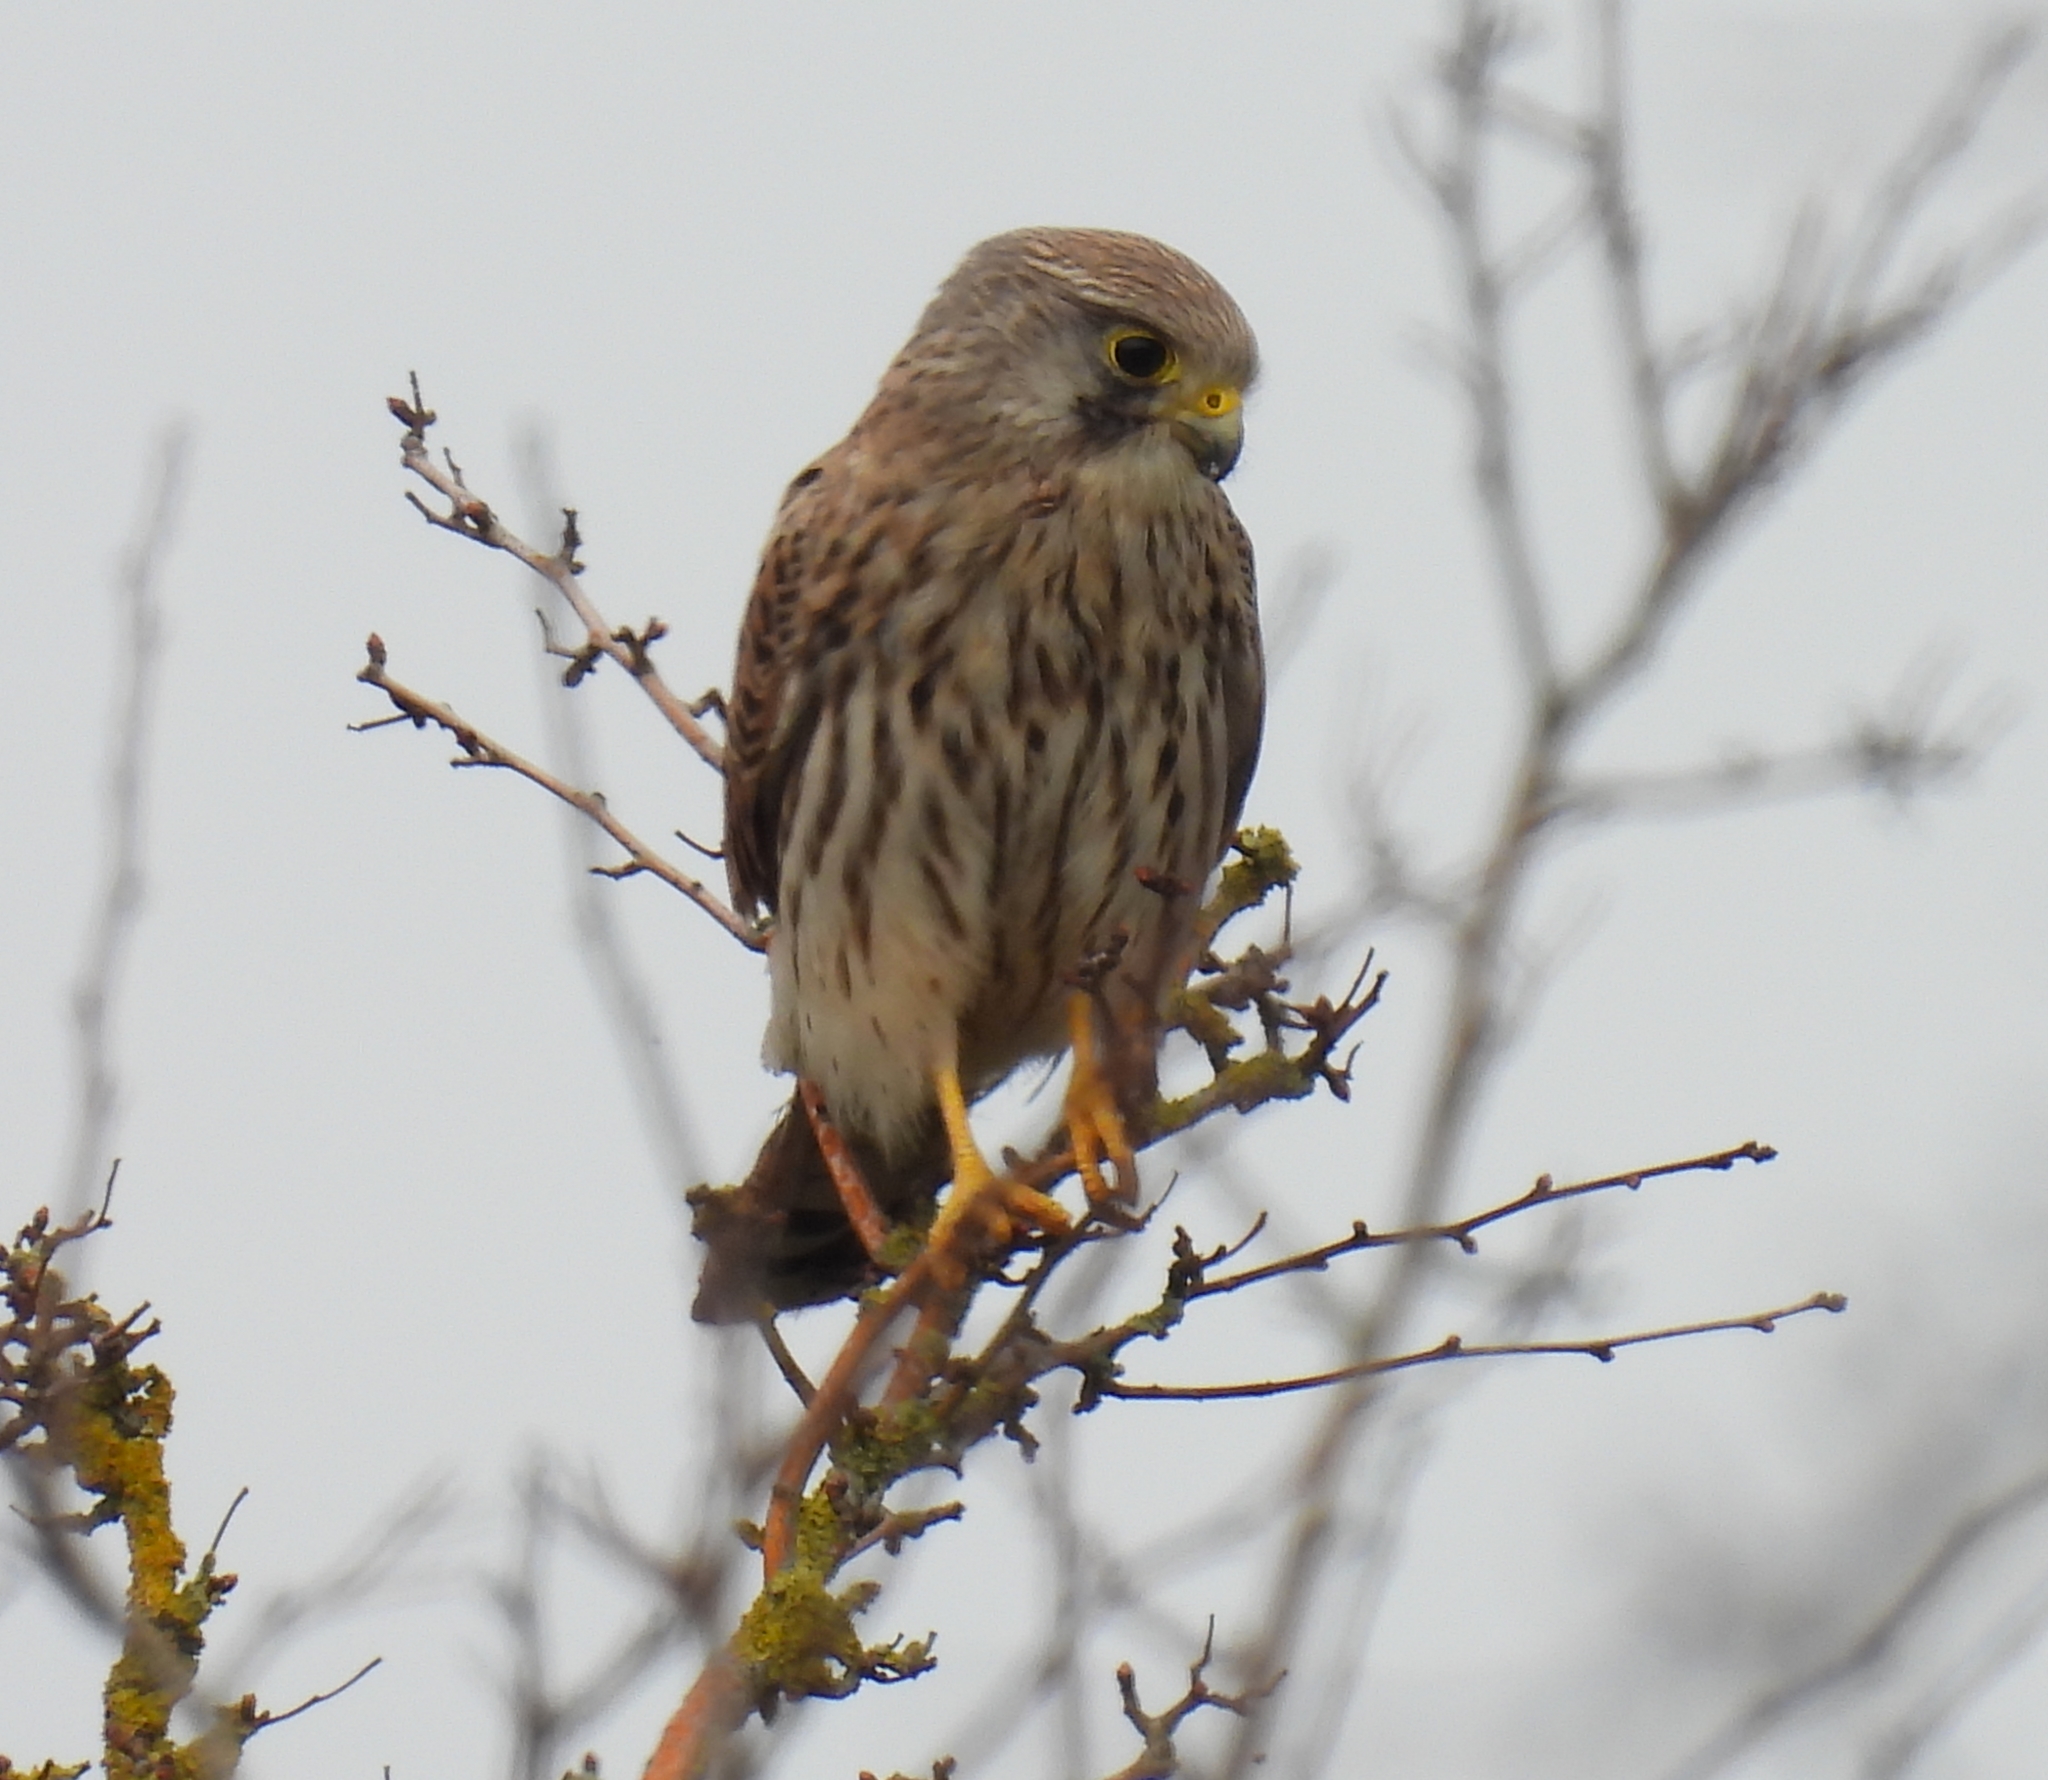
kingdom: Animalia
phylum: Chordata
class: Aves
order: Falconiformes
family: Falconidae
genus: Falco
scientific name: Falco tinnunculus
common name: Common kestrel
